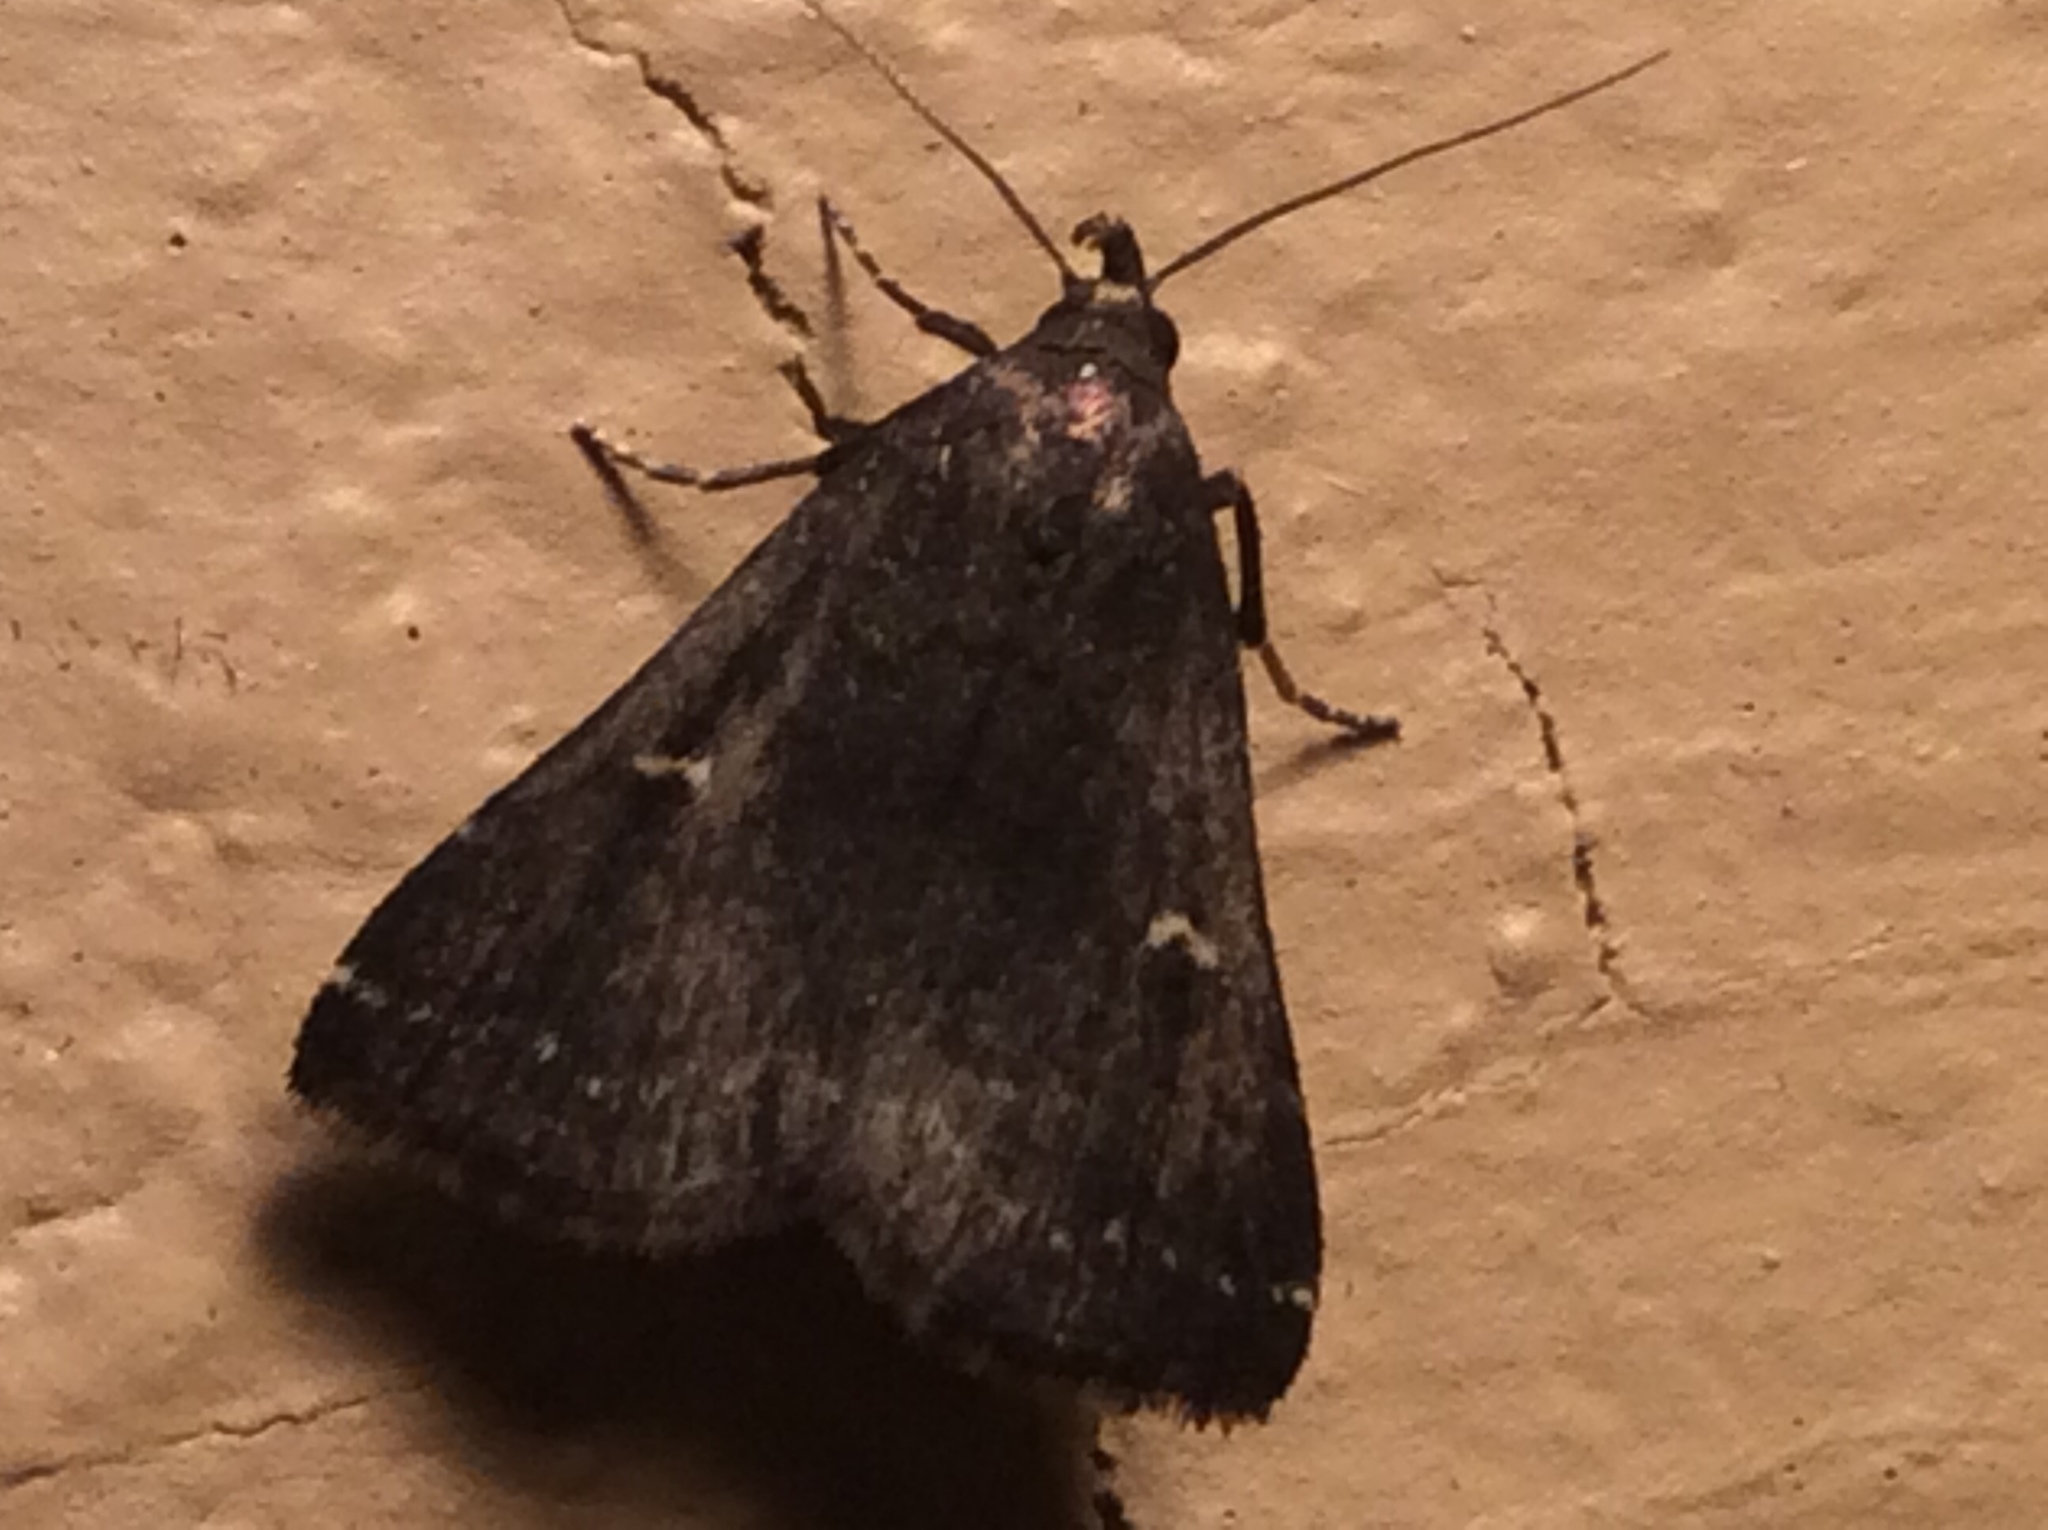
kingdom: Animalia
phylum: Arthropoda
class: Insecta
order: Lepidoptera
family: Erebidae
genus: Tetanolita
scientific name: Tetanolita mynesalis
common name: Smoky tetanolita moth
